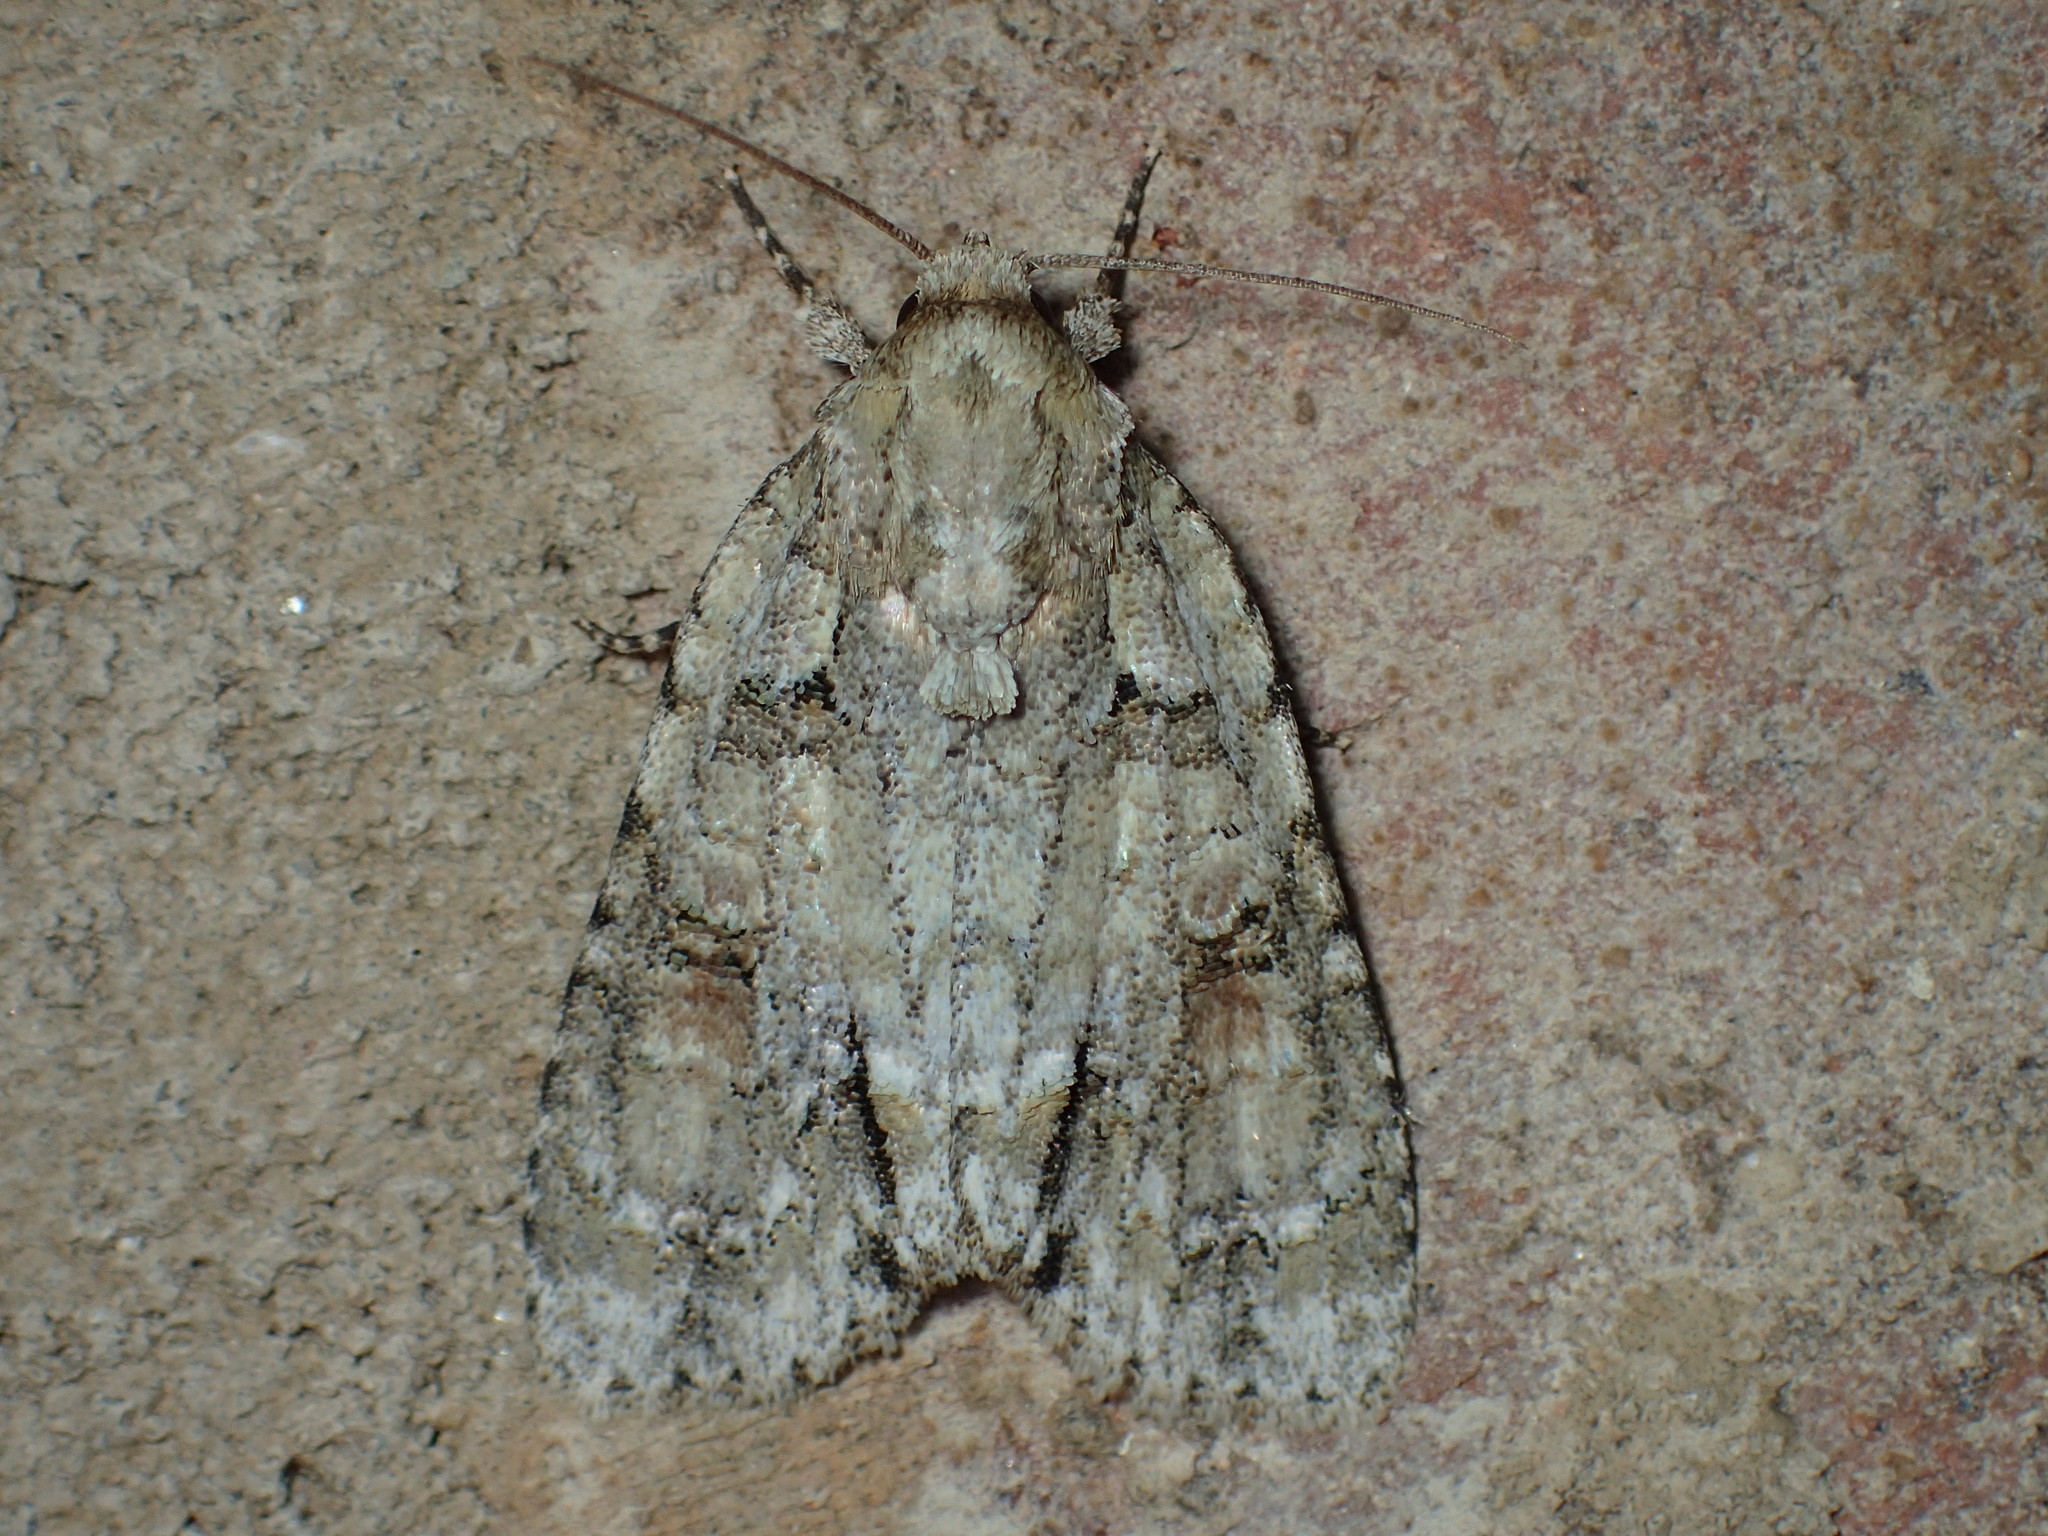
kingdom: Animalia
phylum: Arthropoda
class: Insecta
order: Lepidoptera
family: Noctuidae
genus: Acronicta
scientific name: Acronicta exilis
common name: Exiled dagger moth
